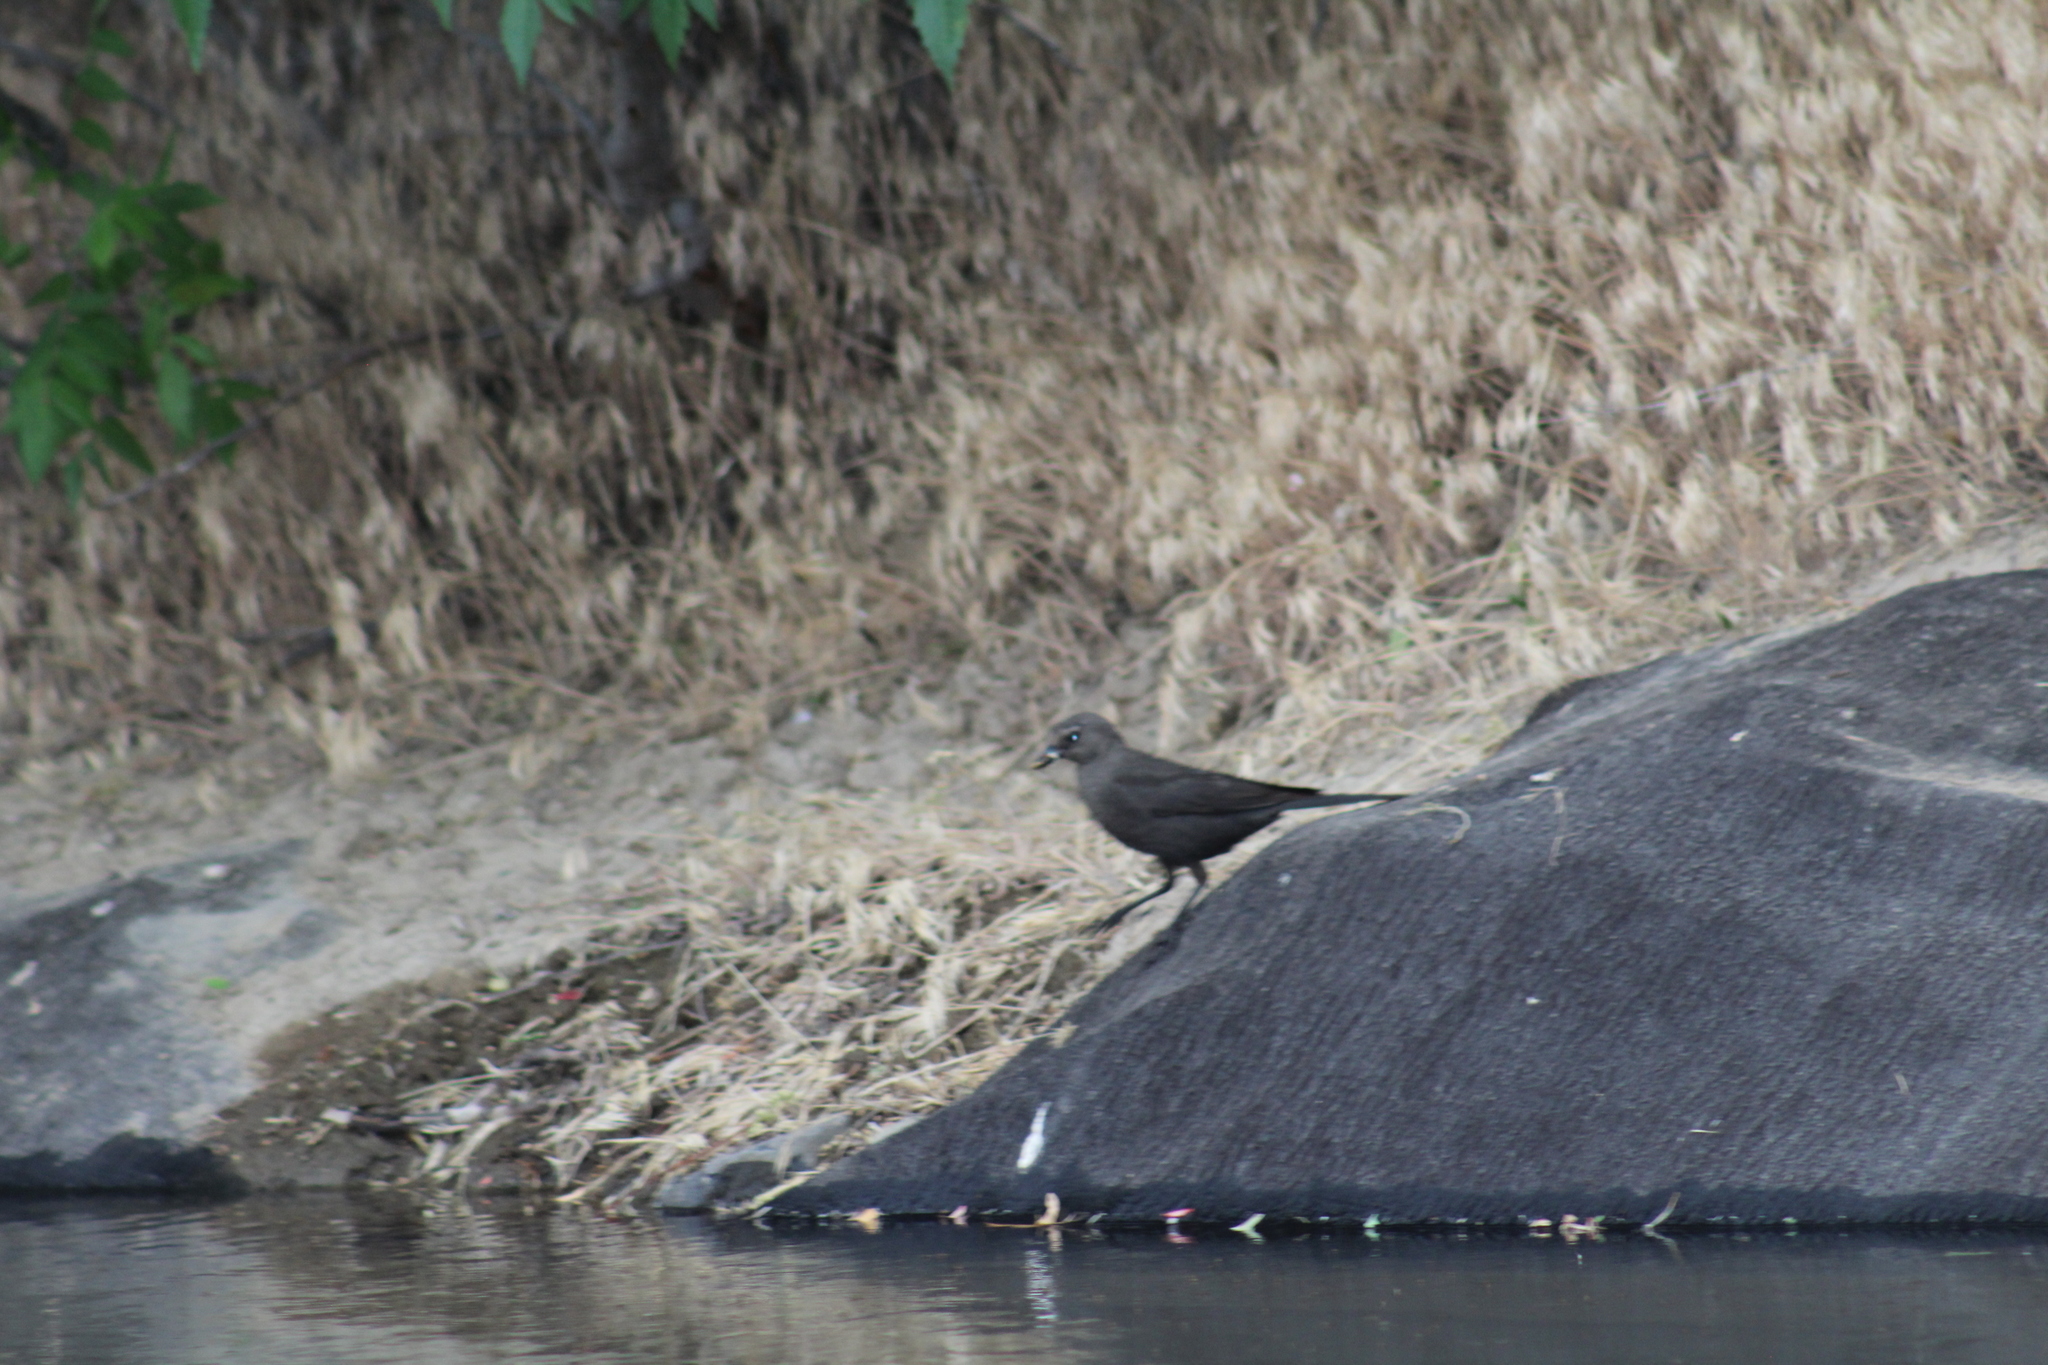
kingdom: Animalia
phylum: Chordata
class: Aves
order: Passeriformes
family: Icteridae
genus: Euphagus
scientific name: Euphagus cyanocephalus
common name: Brewer's blackbird
